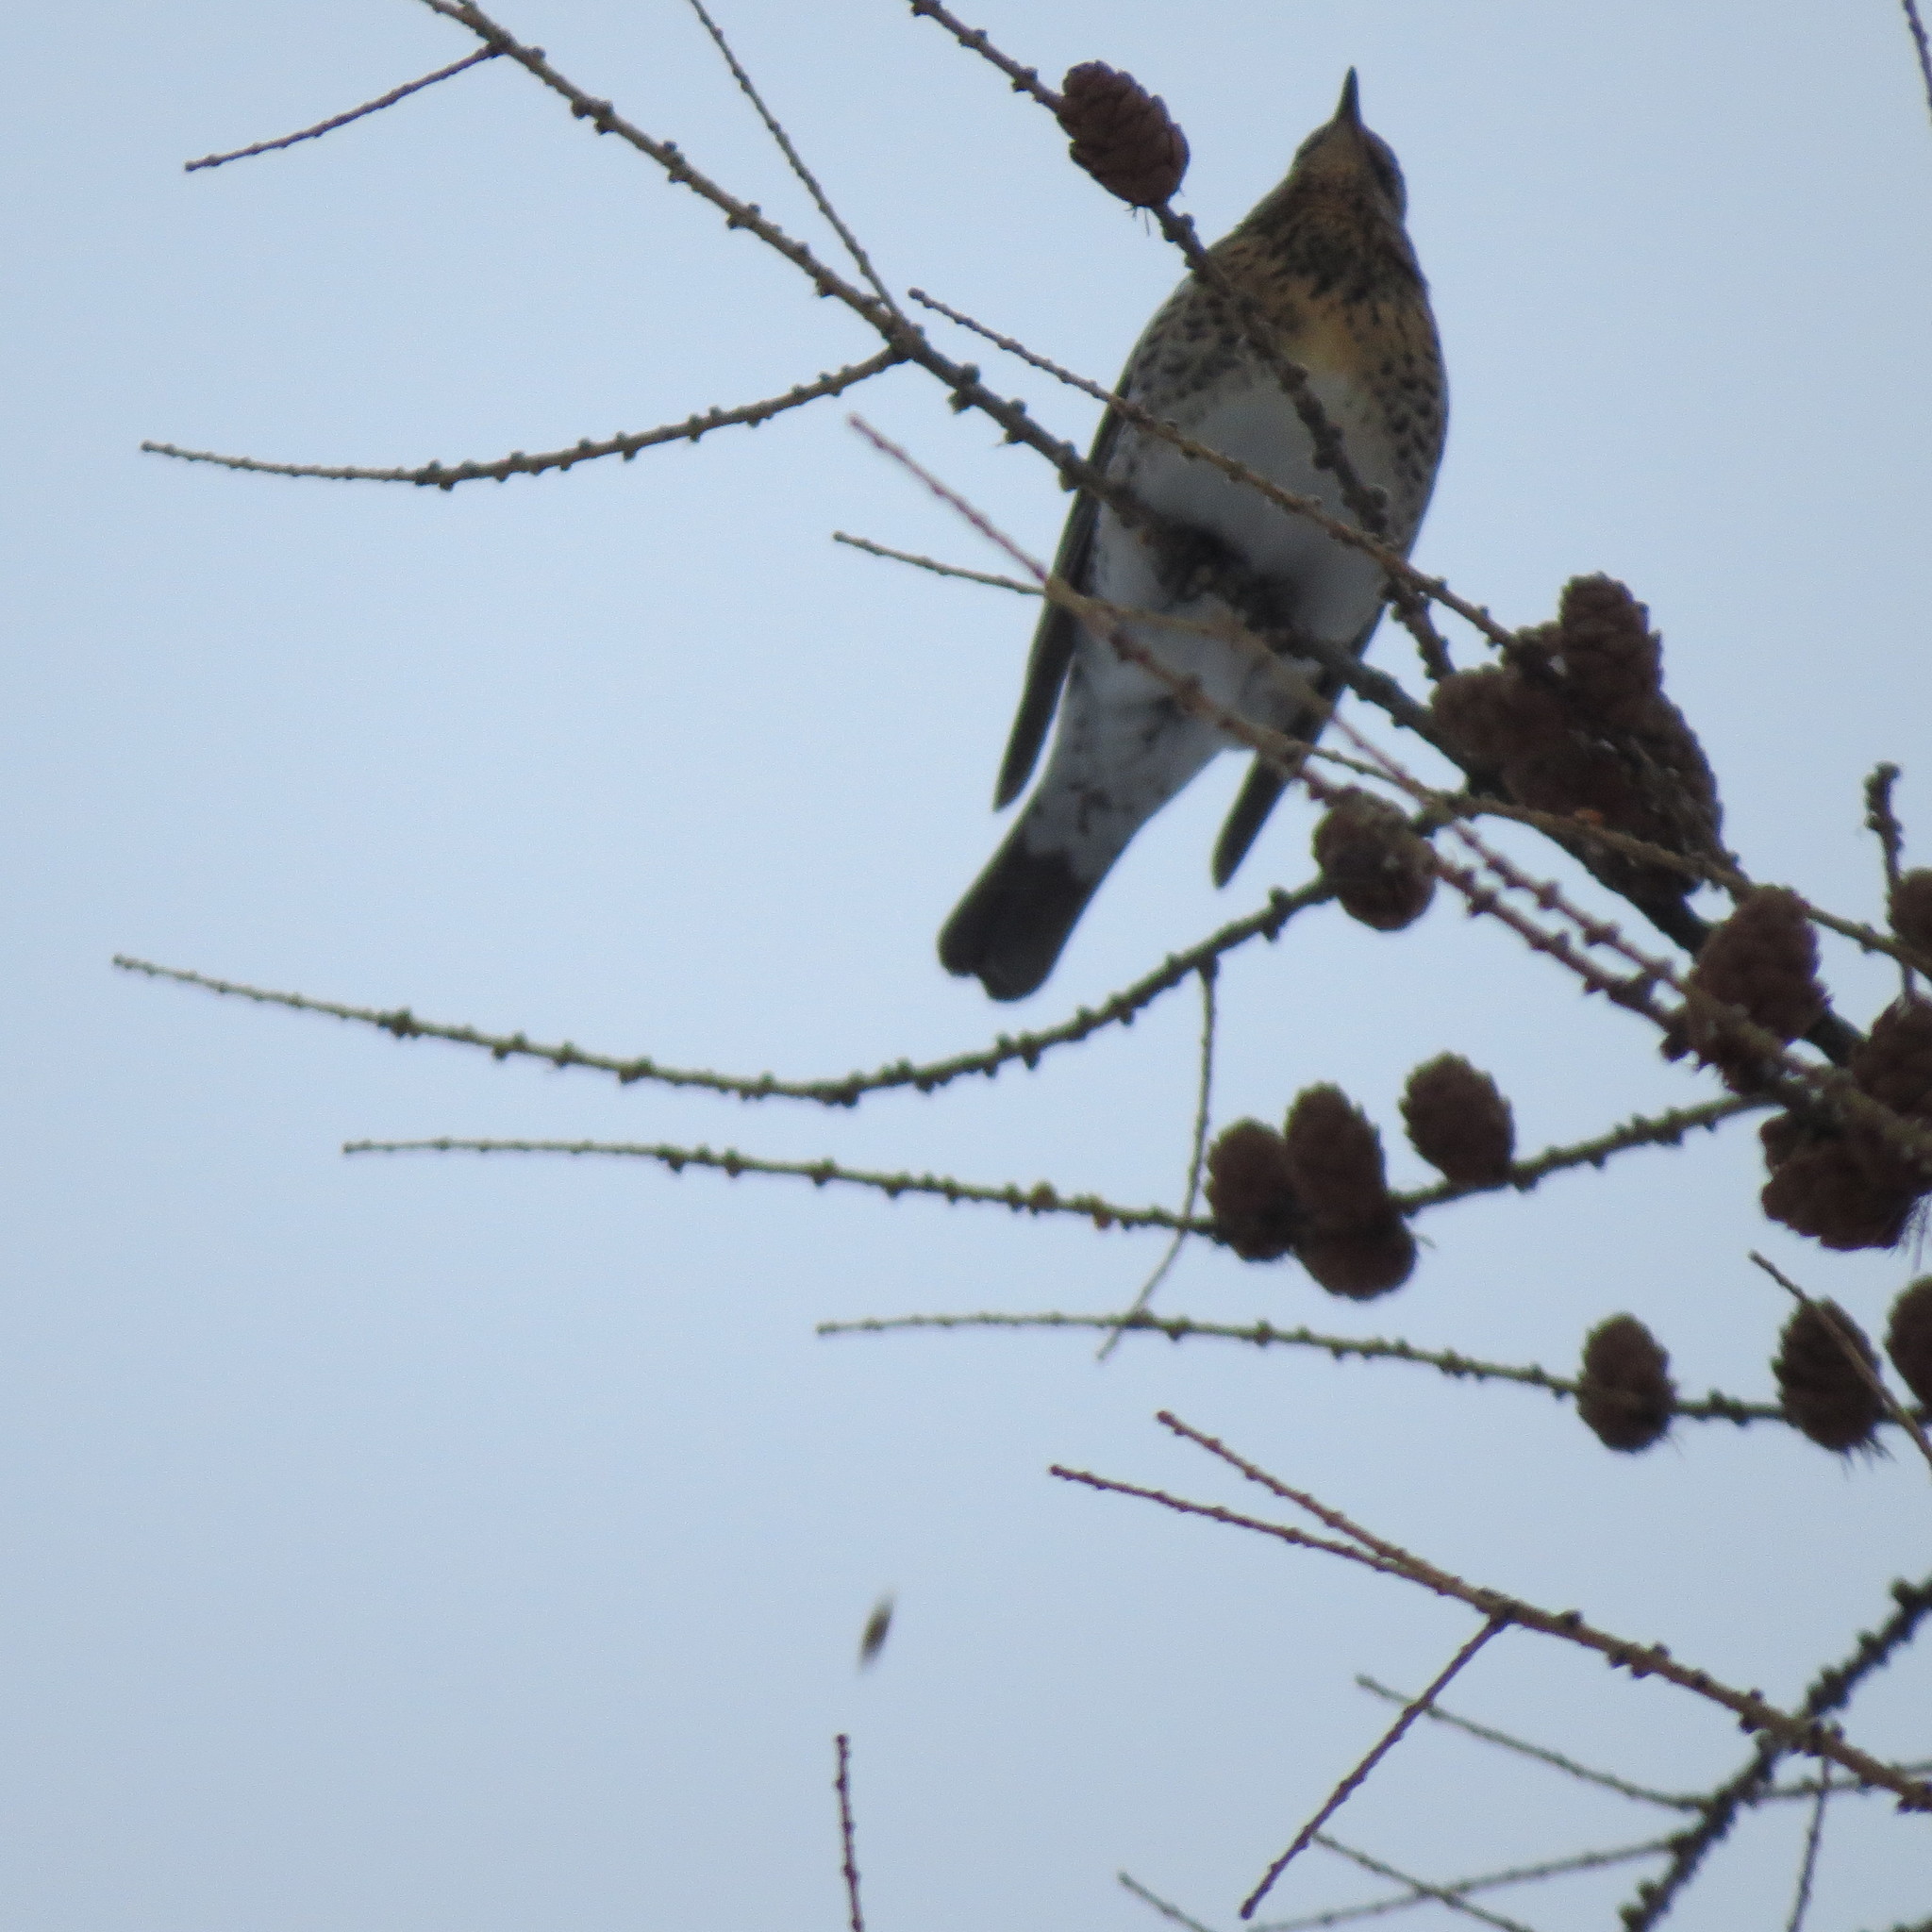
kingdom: Animalia
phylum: Chordata
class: Aves
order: Passeriformes
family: Turdidae
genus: Turdus
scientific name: Turdus pilaris
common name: Fieldfare
